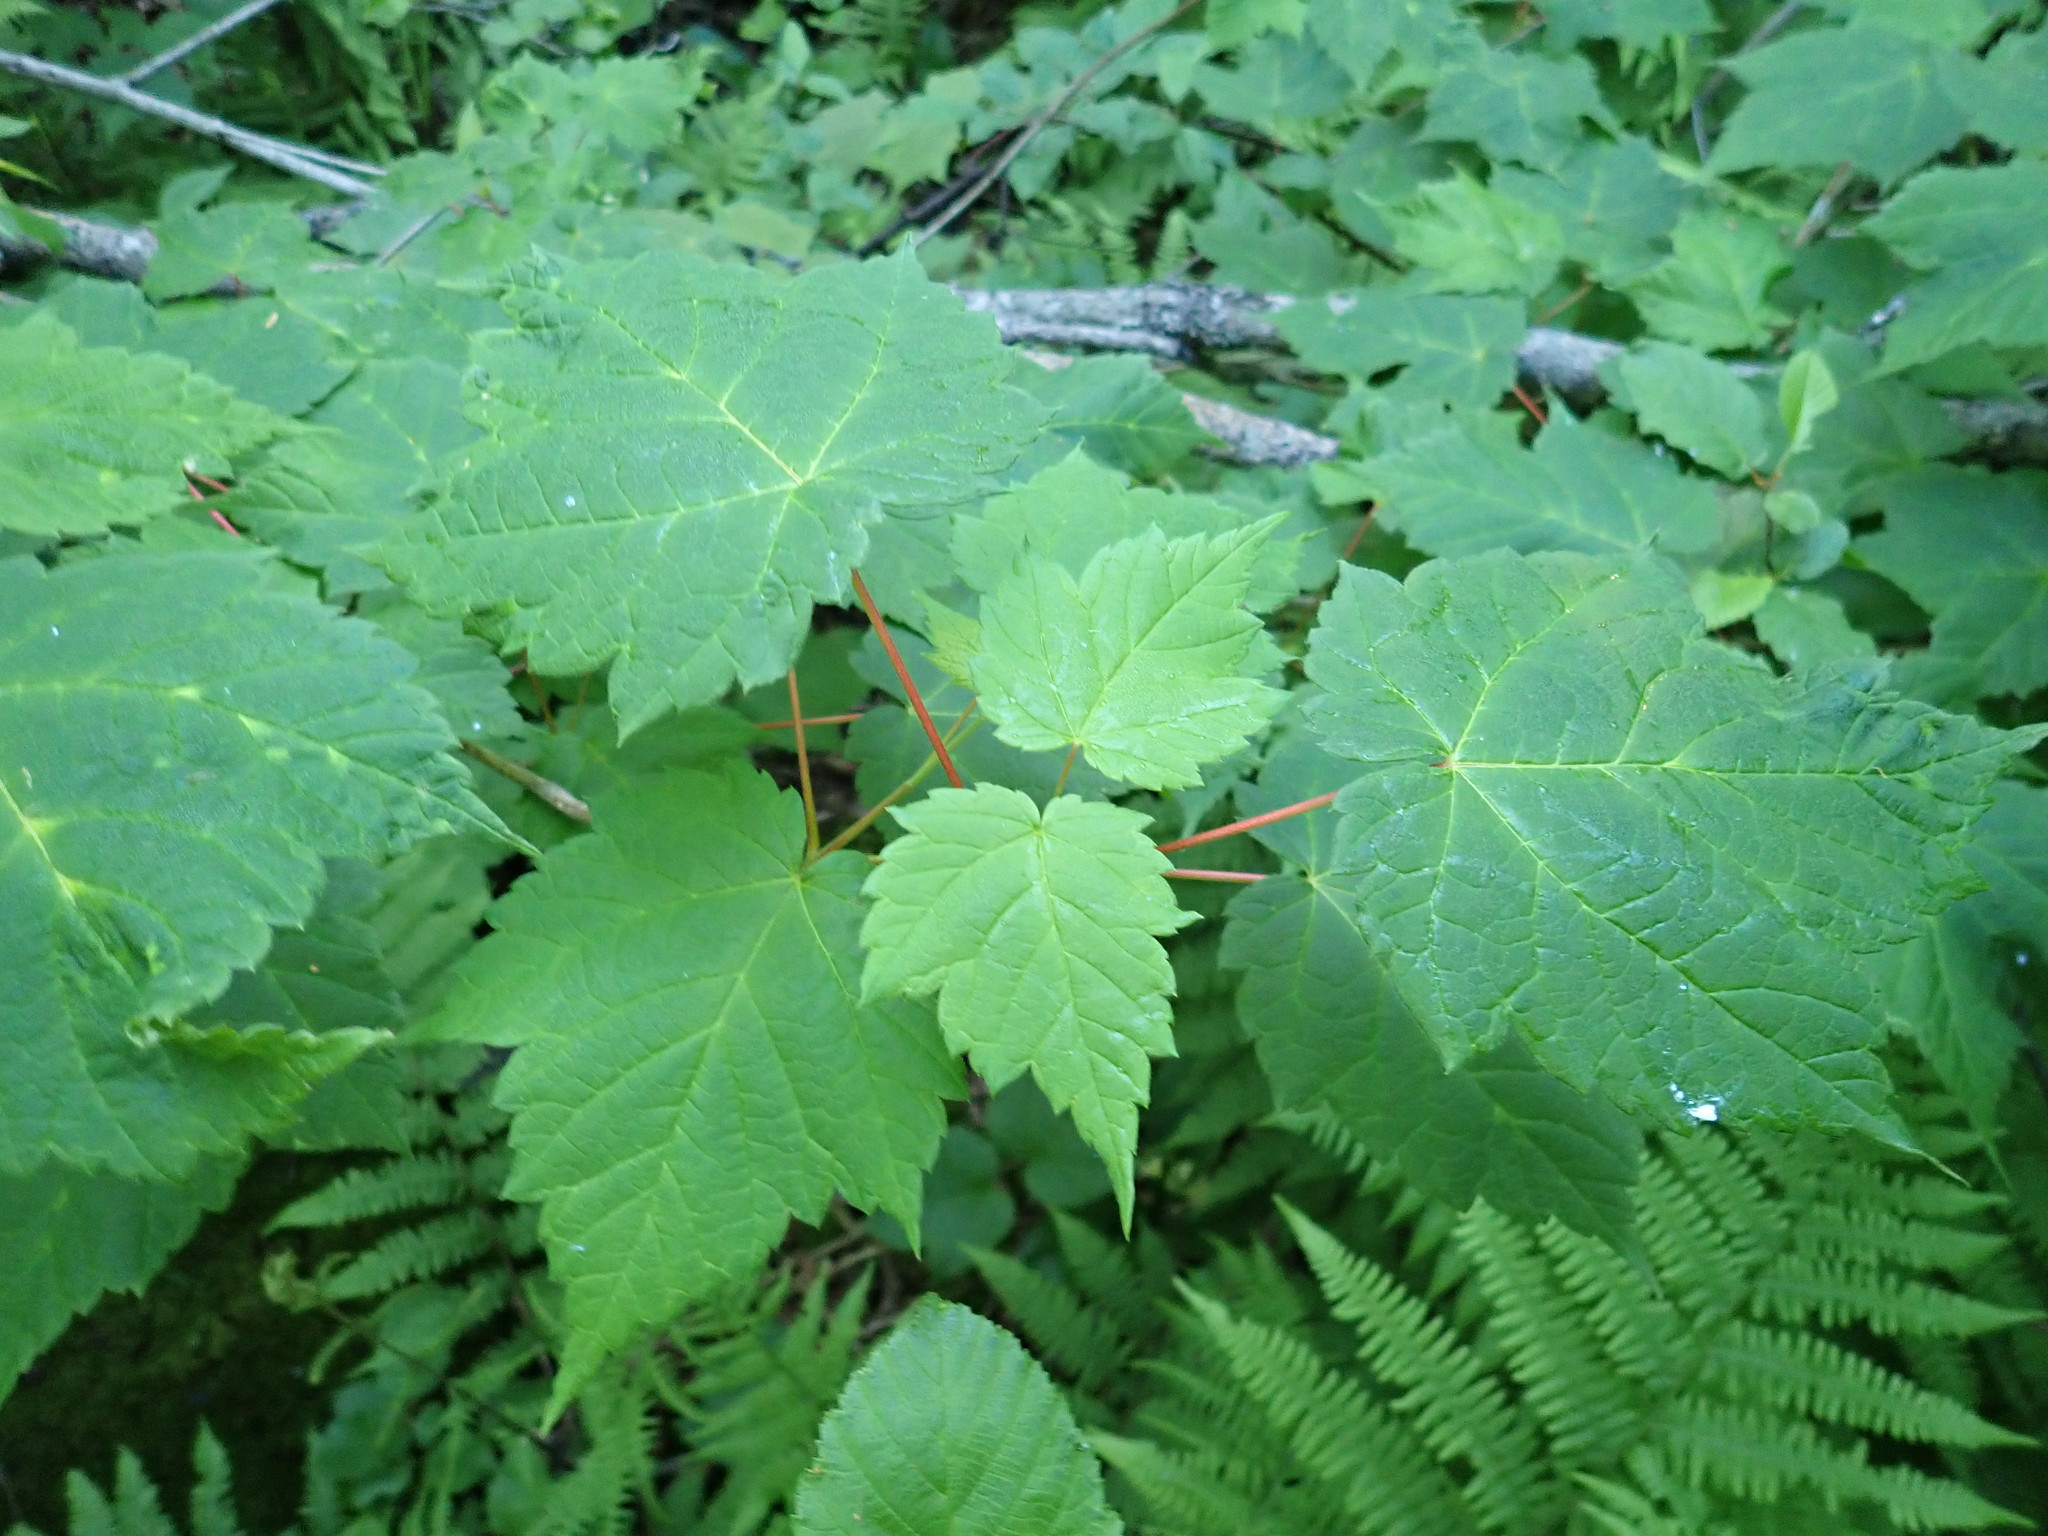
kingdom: Plantae
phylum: Tracheophyta
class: Magnoliopsida
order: Sapindales
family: Sapindaceae
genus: Acer
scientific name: Acer spicatum
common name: Mountain maple
